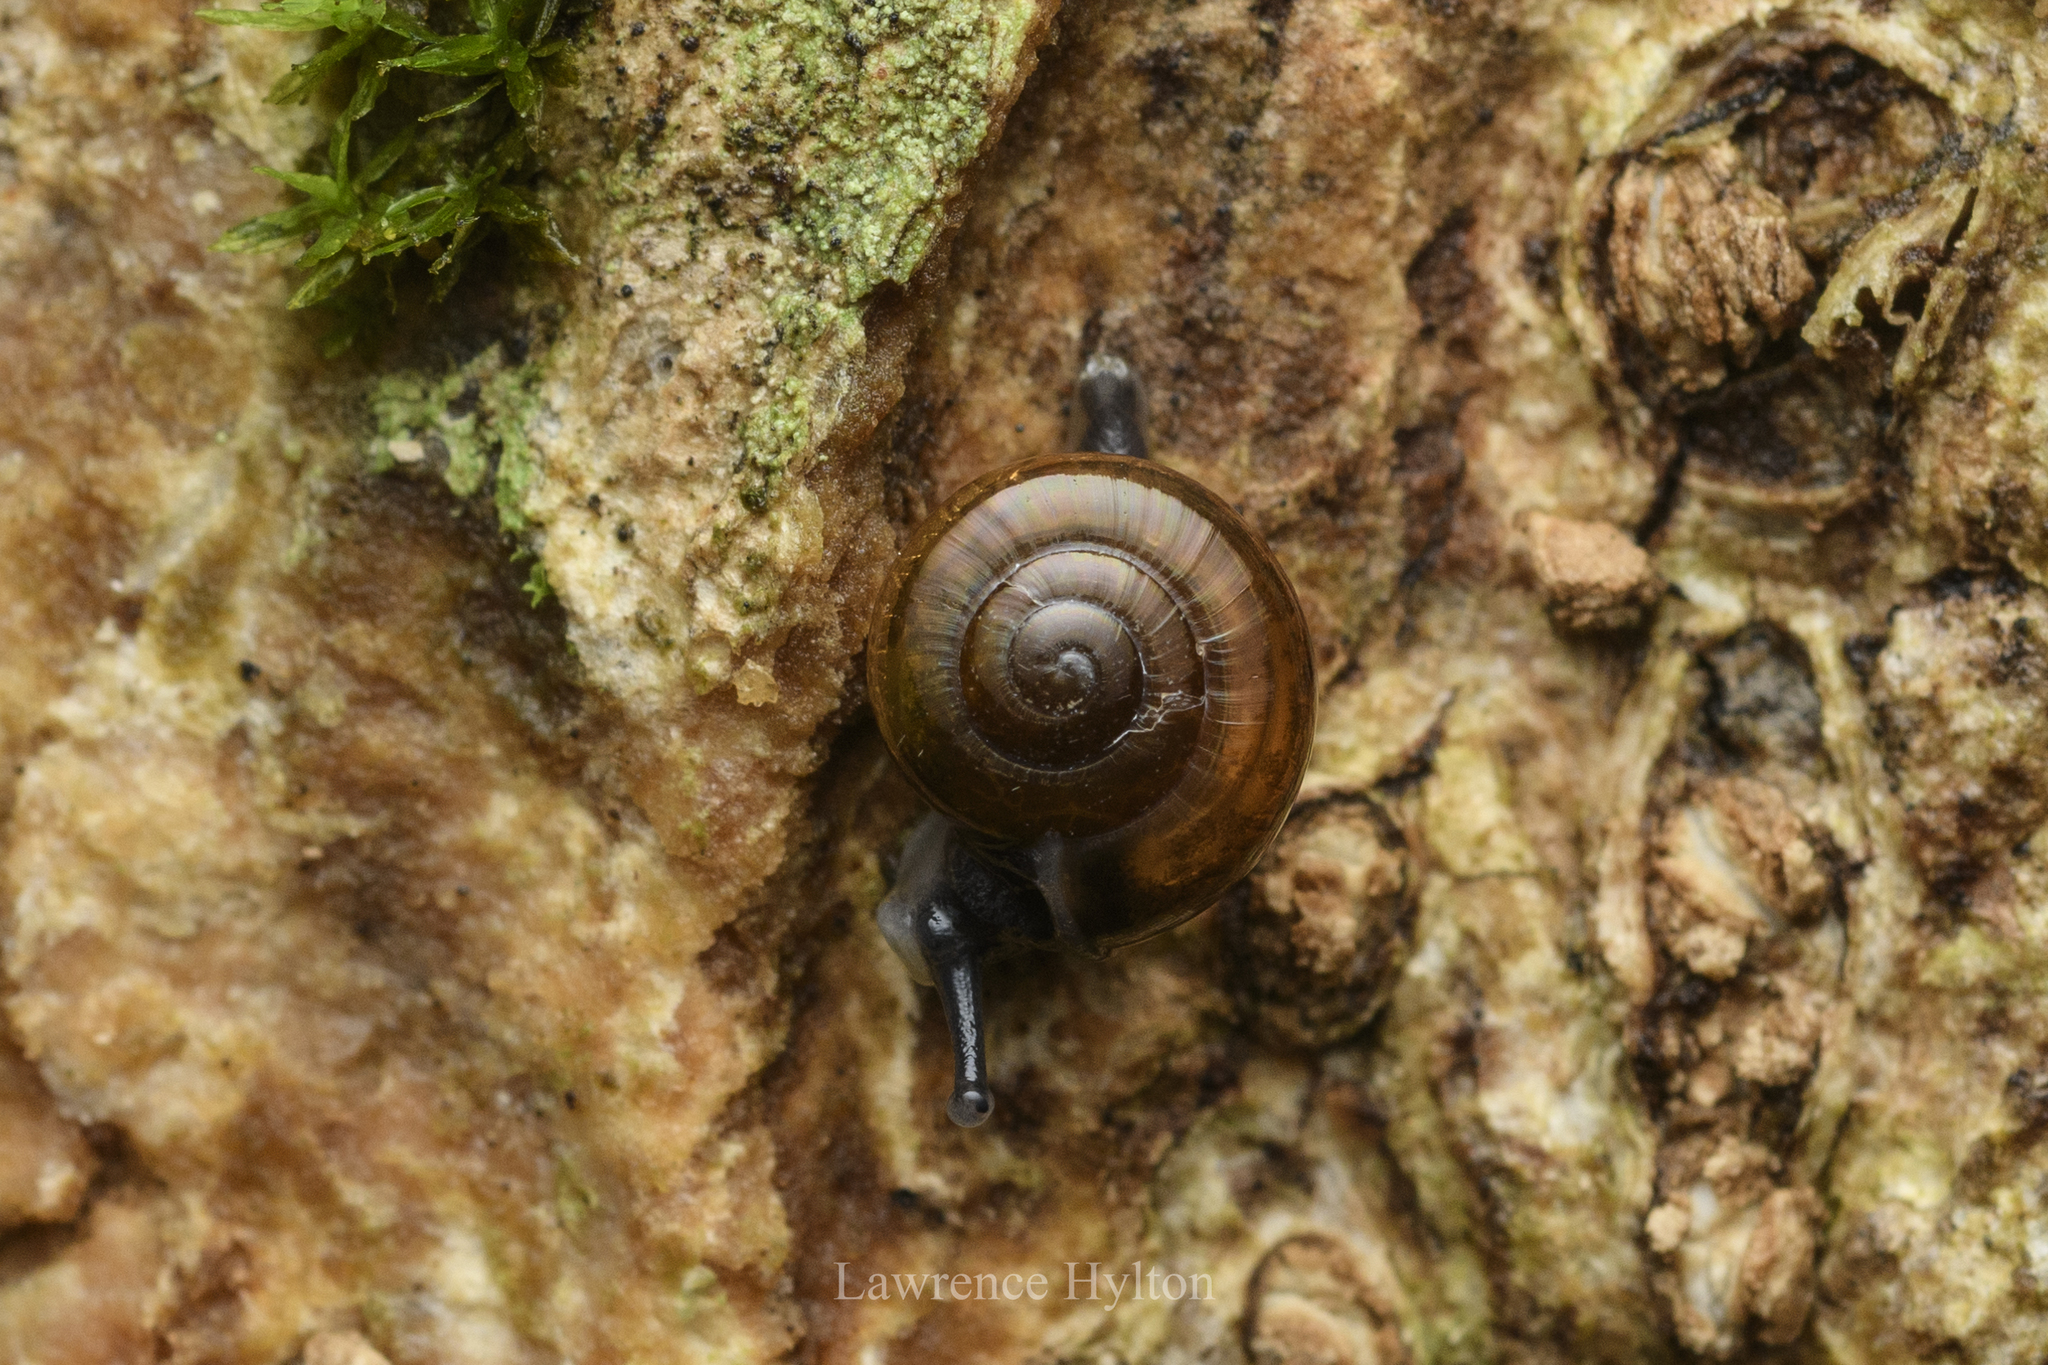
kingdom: Animalia
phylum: Mollusca
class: Gastropoda
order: Stylommatophora
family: Ariophantidae
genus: Sarika
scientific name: Sarika resplendens
